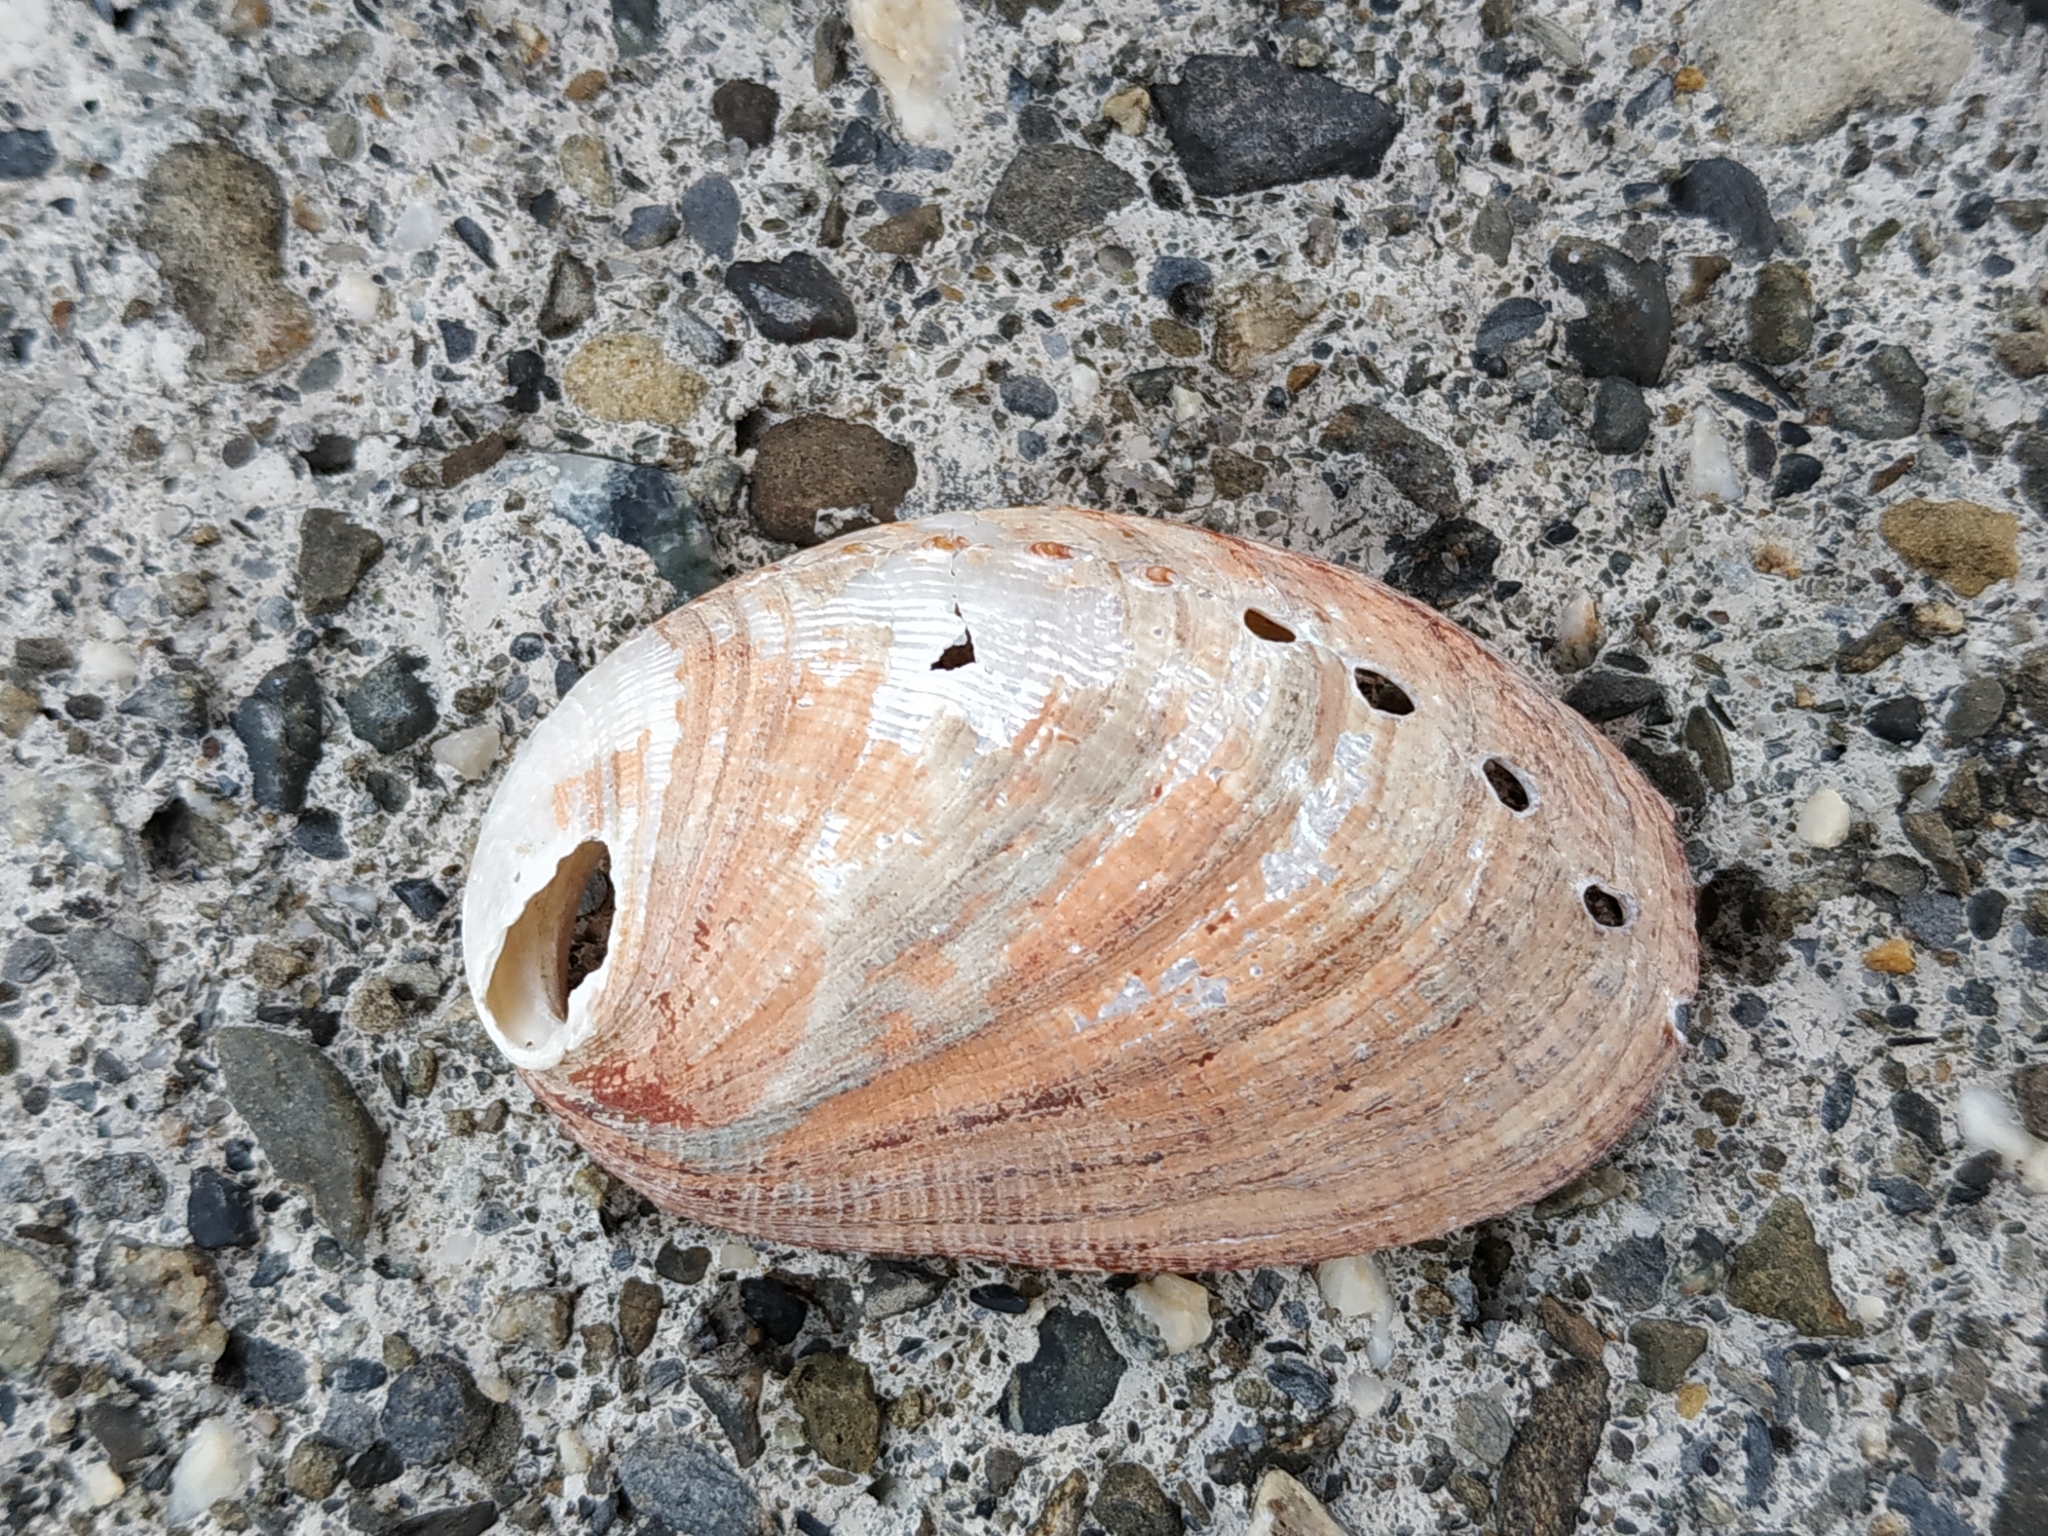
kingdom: Animalia
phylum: Mollusca
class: Gastropoda
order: Lepetellida
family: Haliotidae
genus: Haliotis
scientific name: Haliotis diversicolor
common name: Multicolored abalone
